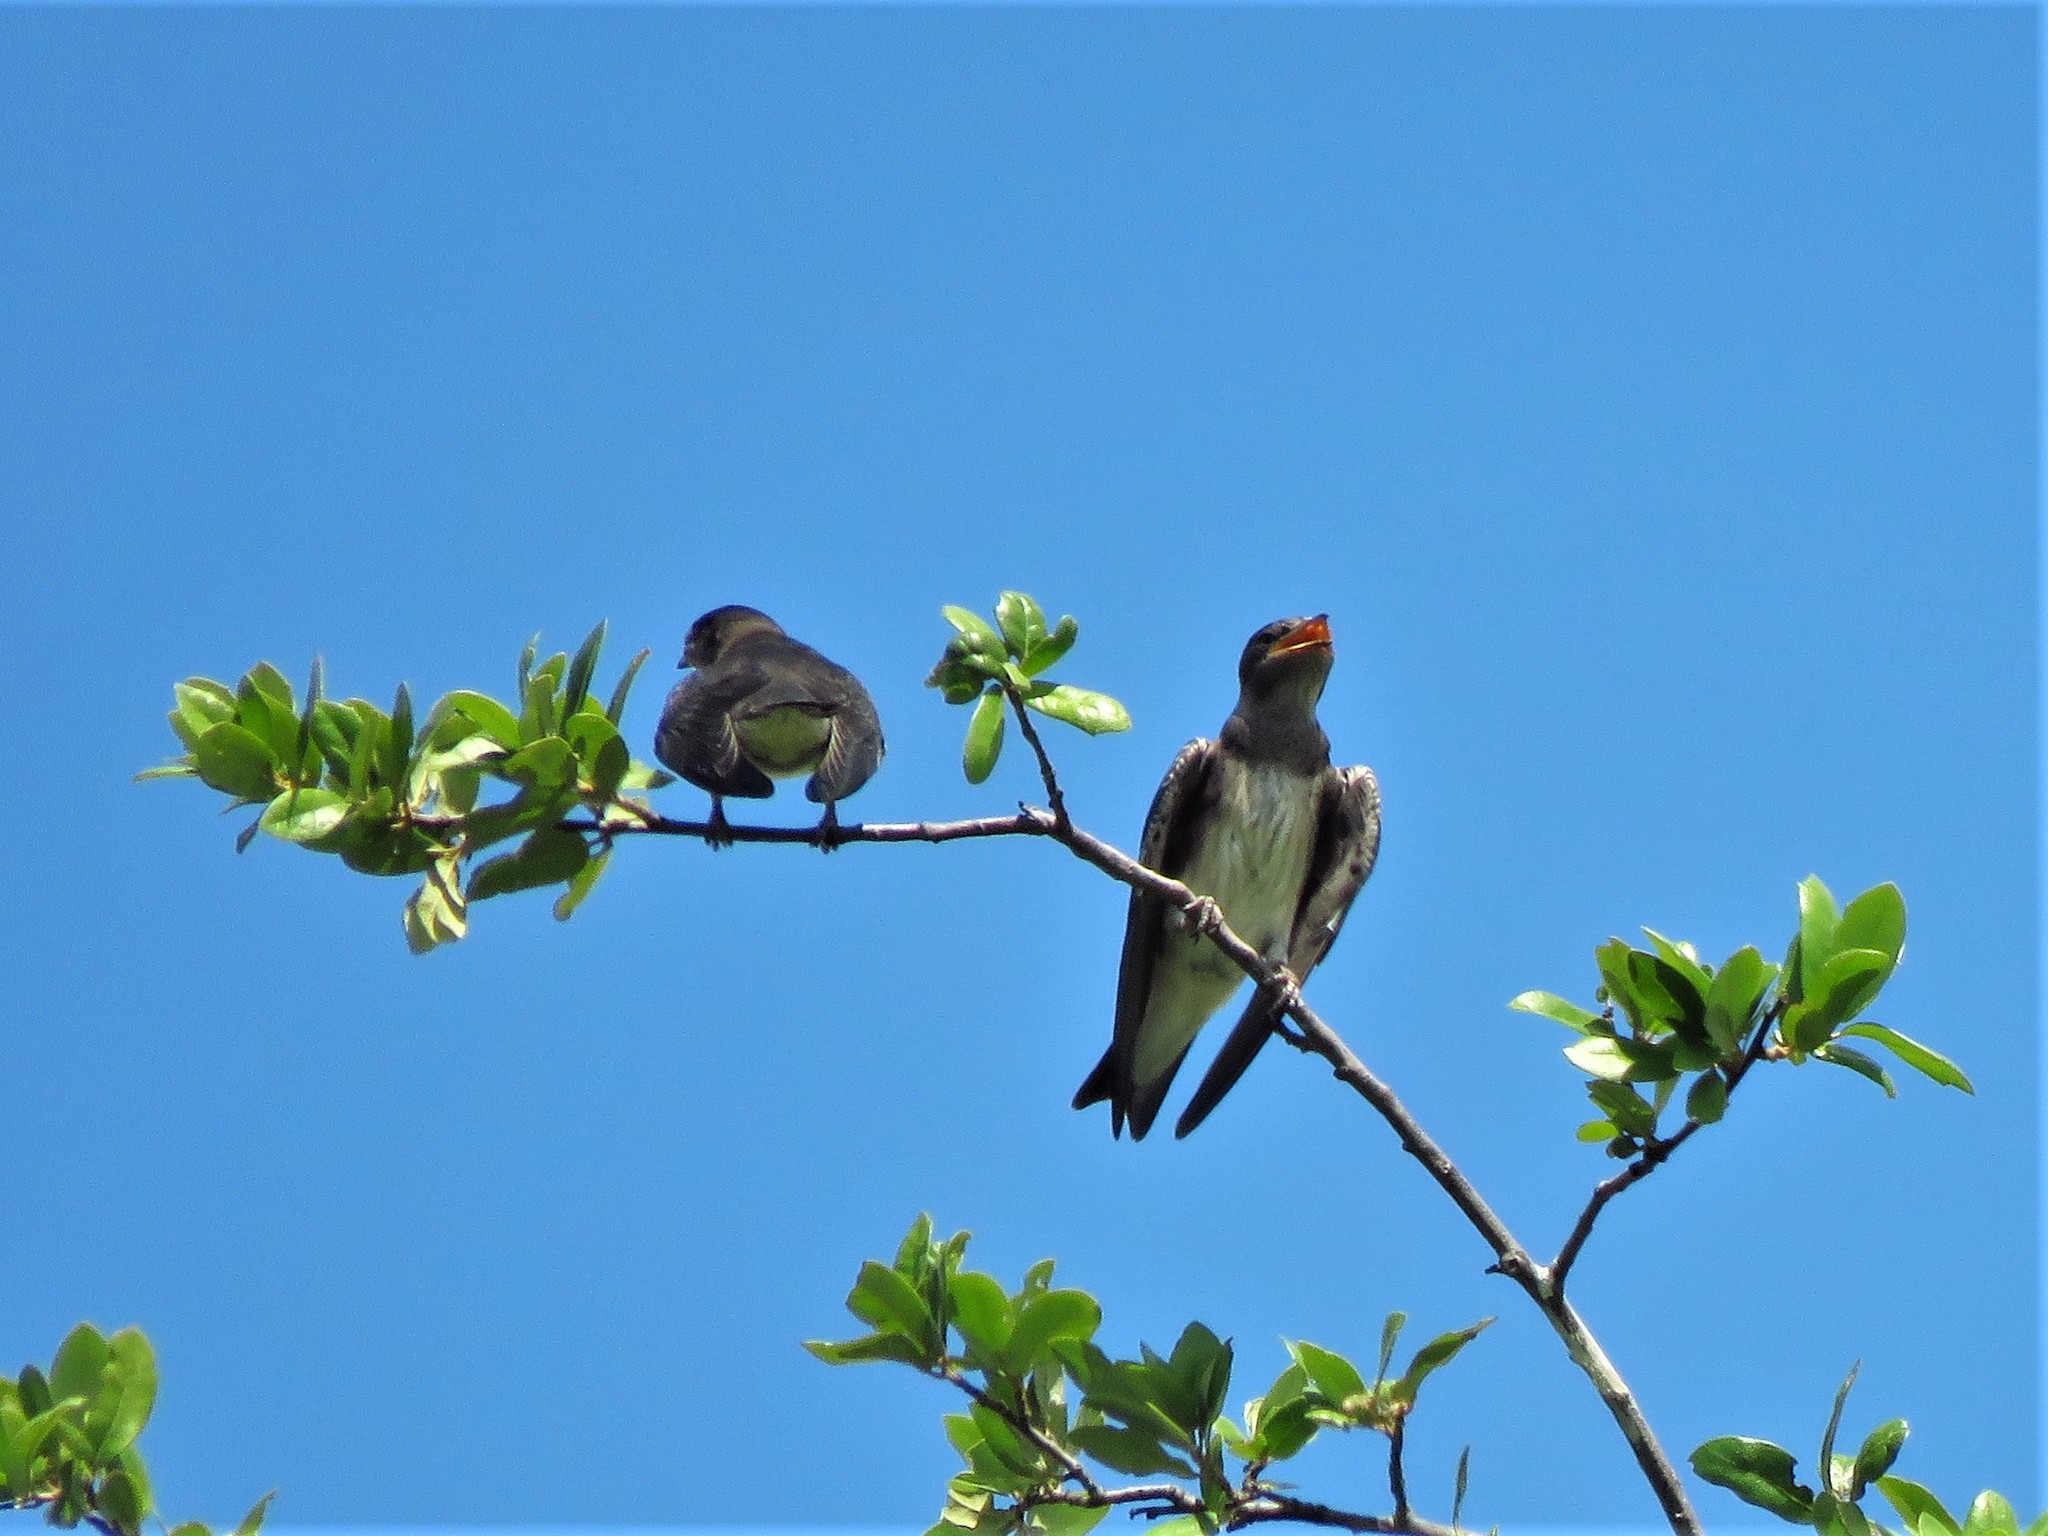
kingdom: Animalia
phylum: Chordata
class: Aves
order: Passeriformes
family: Hirundinidae
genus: Progne
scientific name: Progne subis
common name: Purple martin
